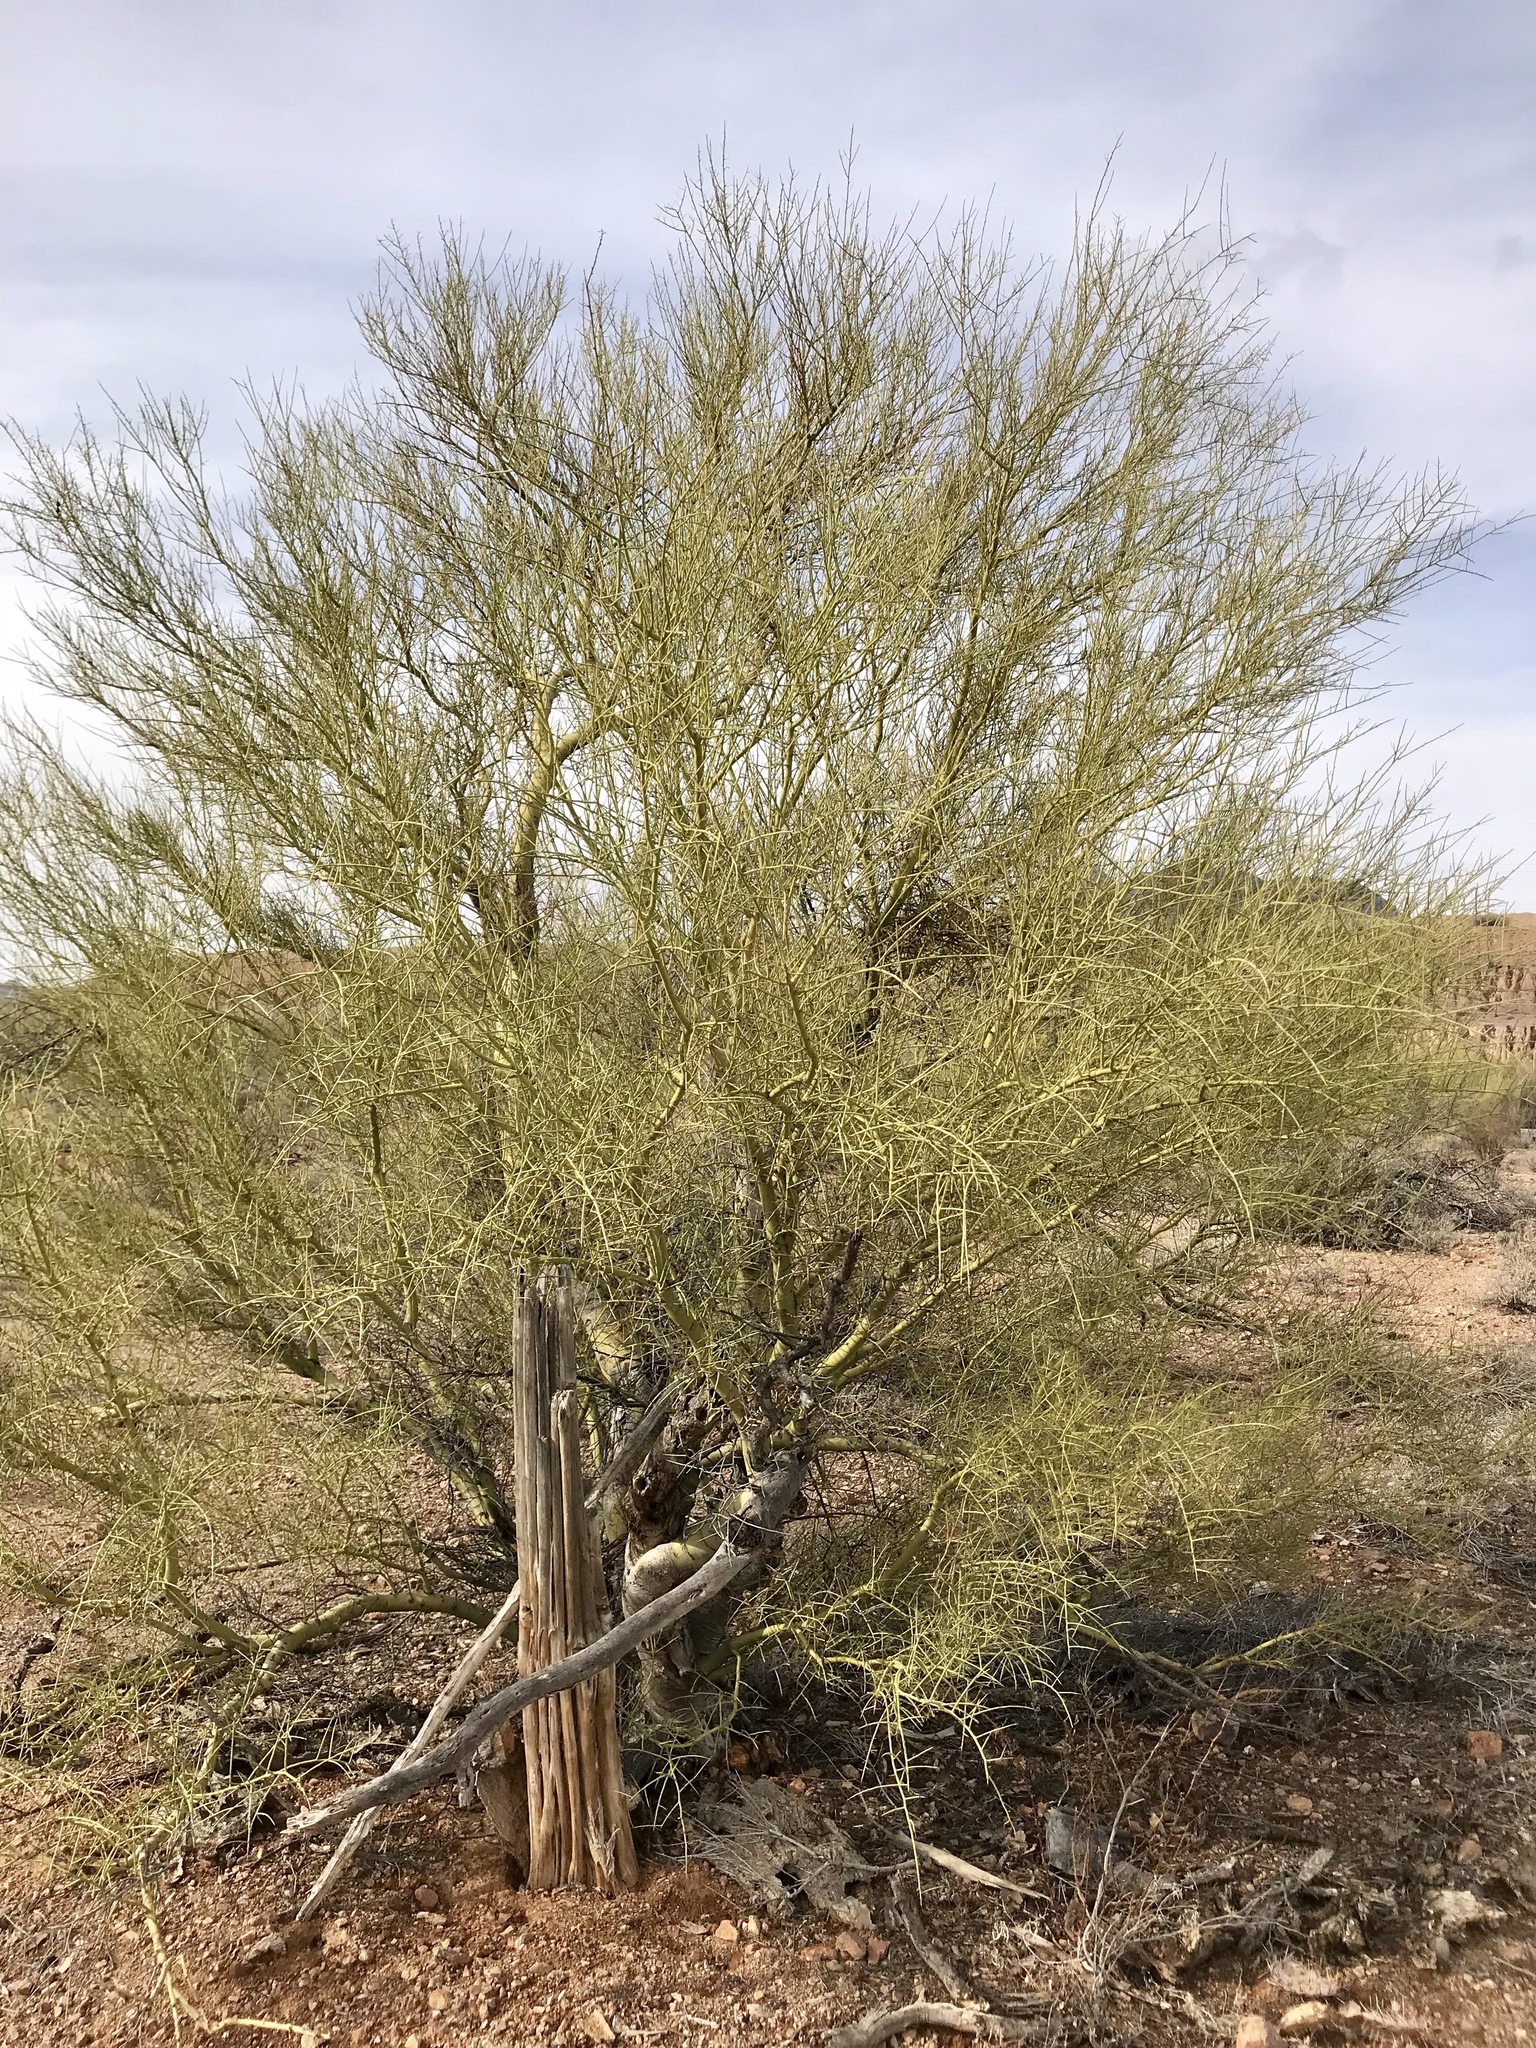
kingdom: Plantae
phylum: Tracheophyta
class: Magnoliopsida
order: Fabales
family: Fabaceae
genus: Parkinsonia
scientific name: Parkinsonia microphylla
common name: Yellow paloverde
